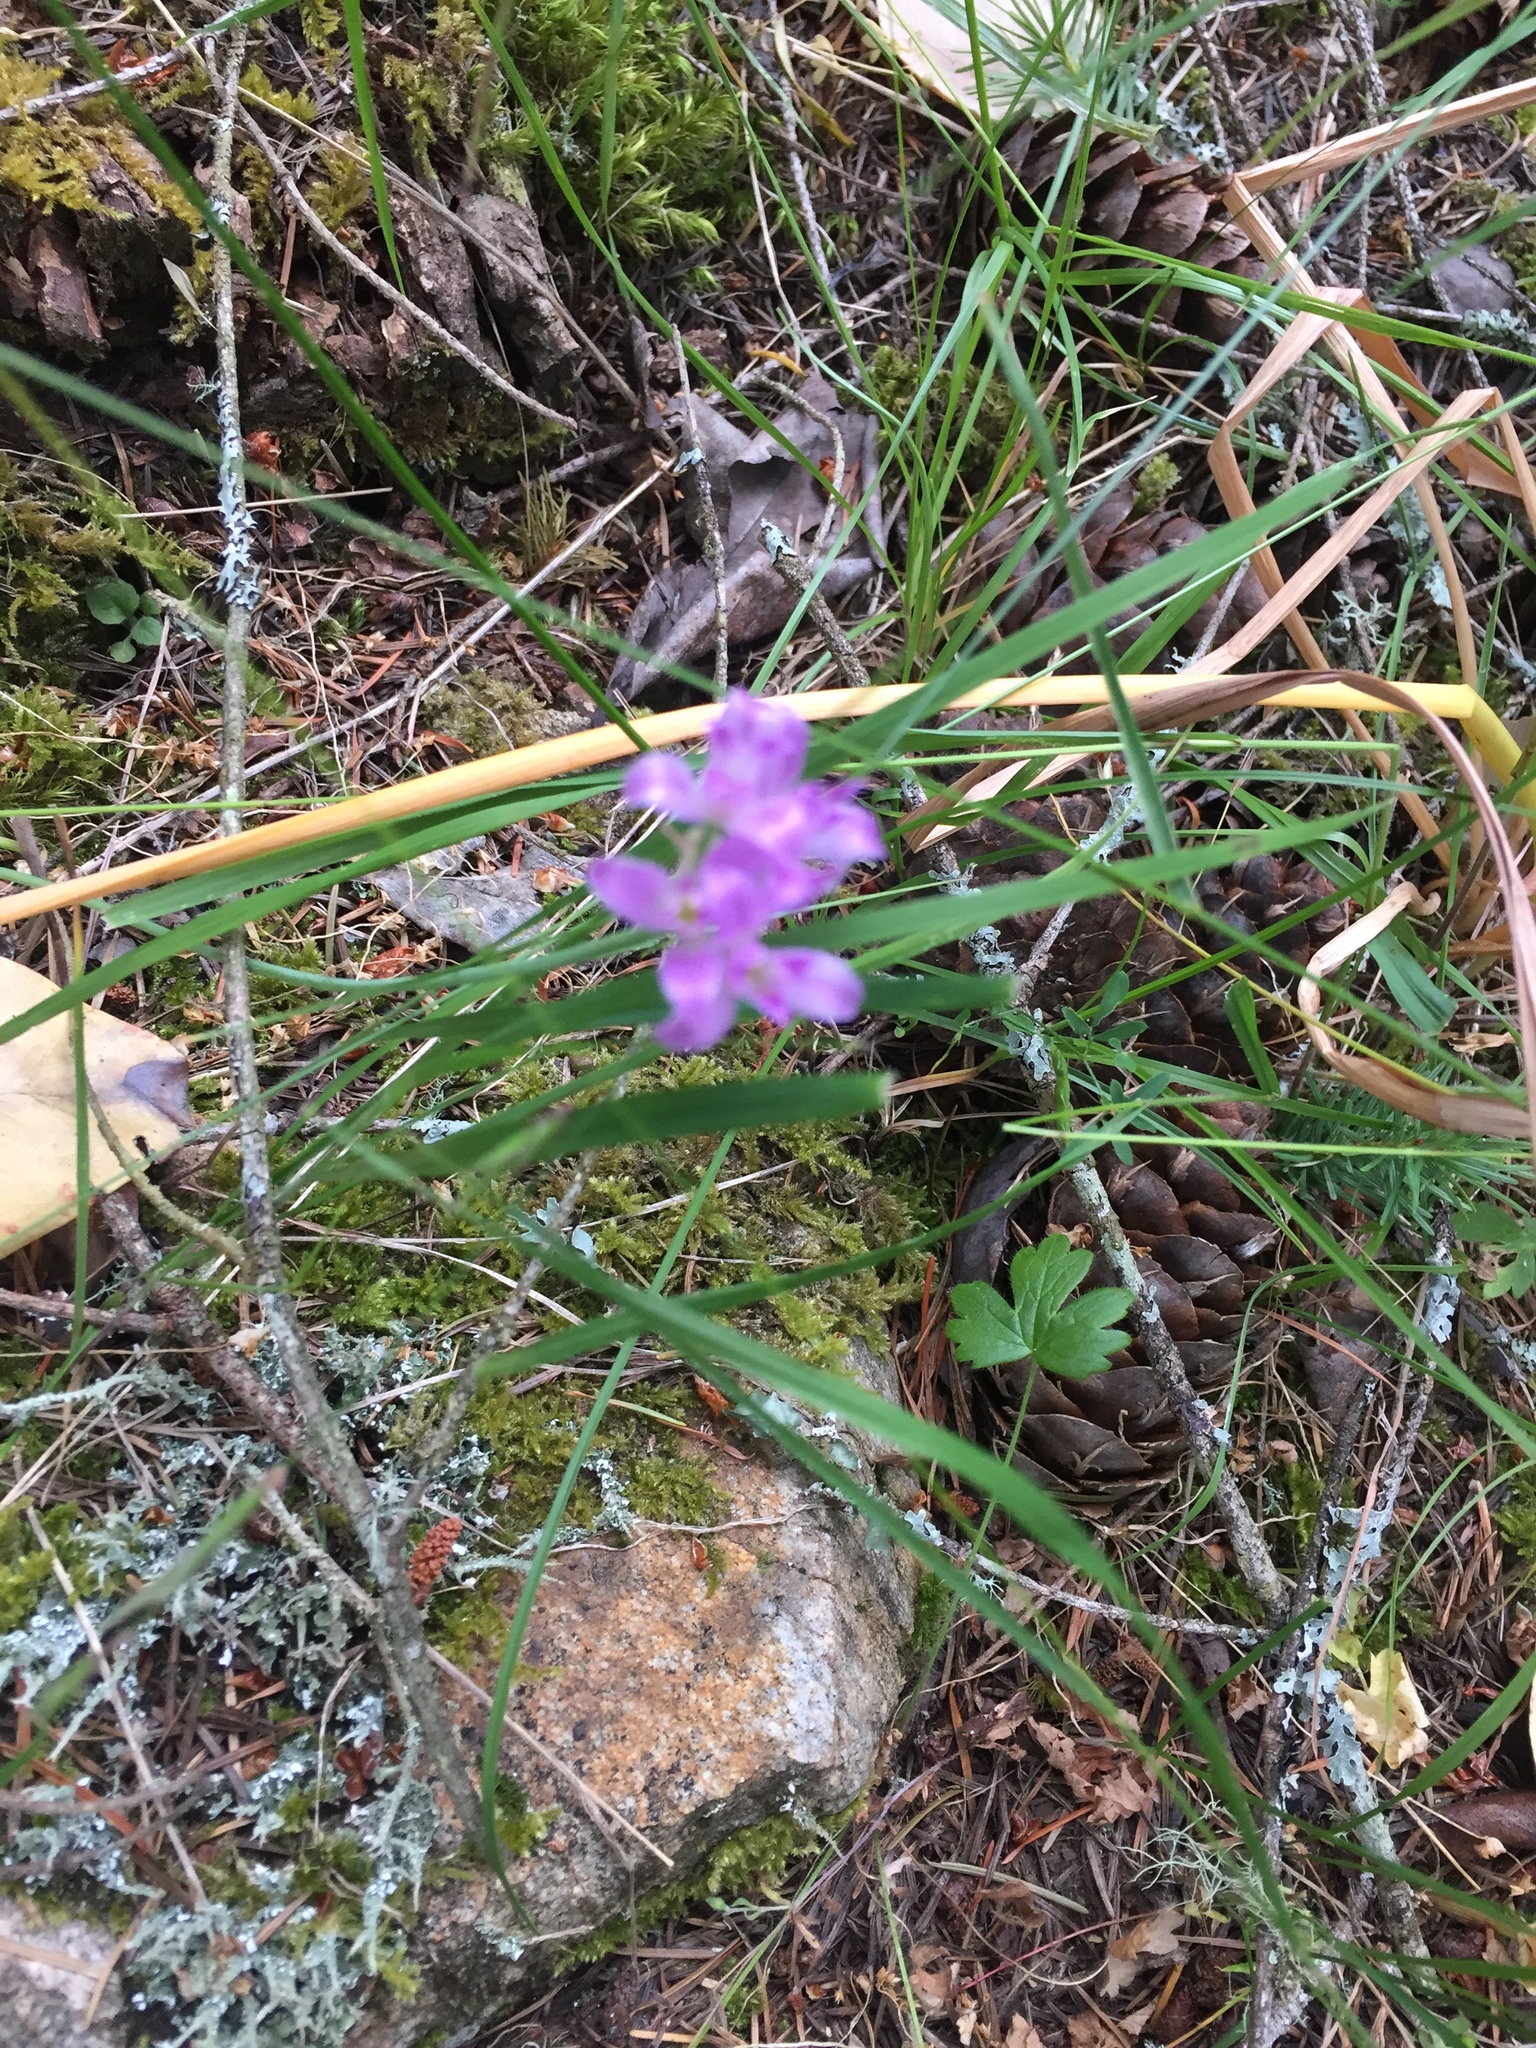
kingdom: Plantae
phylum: Tracheophyta
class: Liliopsida
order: Asparagales
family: Amaryllidaceae
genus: Allium
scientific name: Allium acuminatum
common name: Hooker's onion
